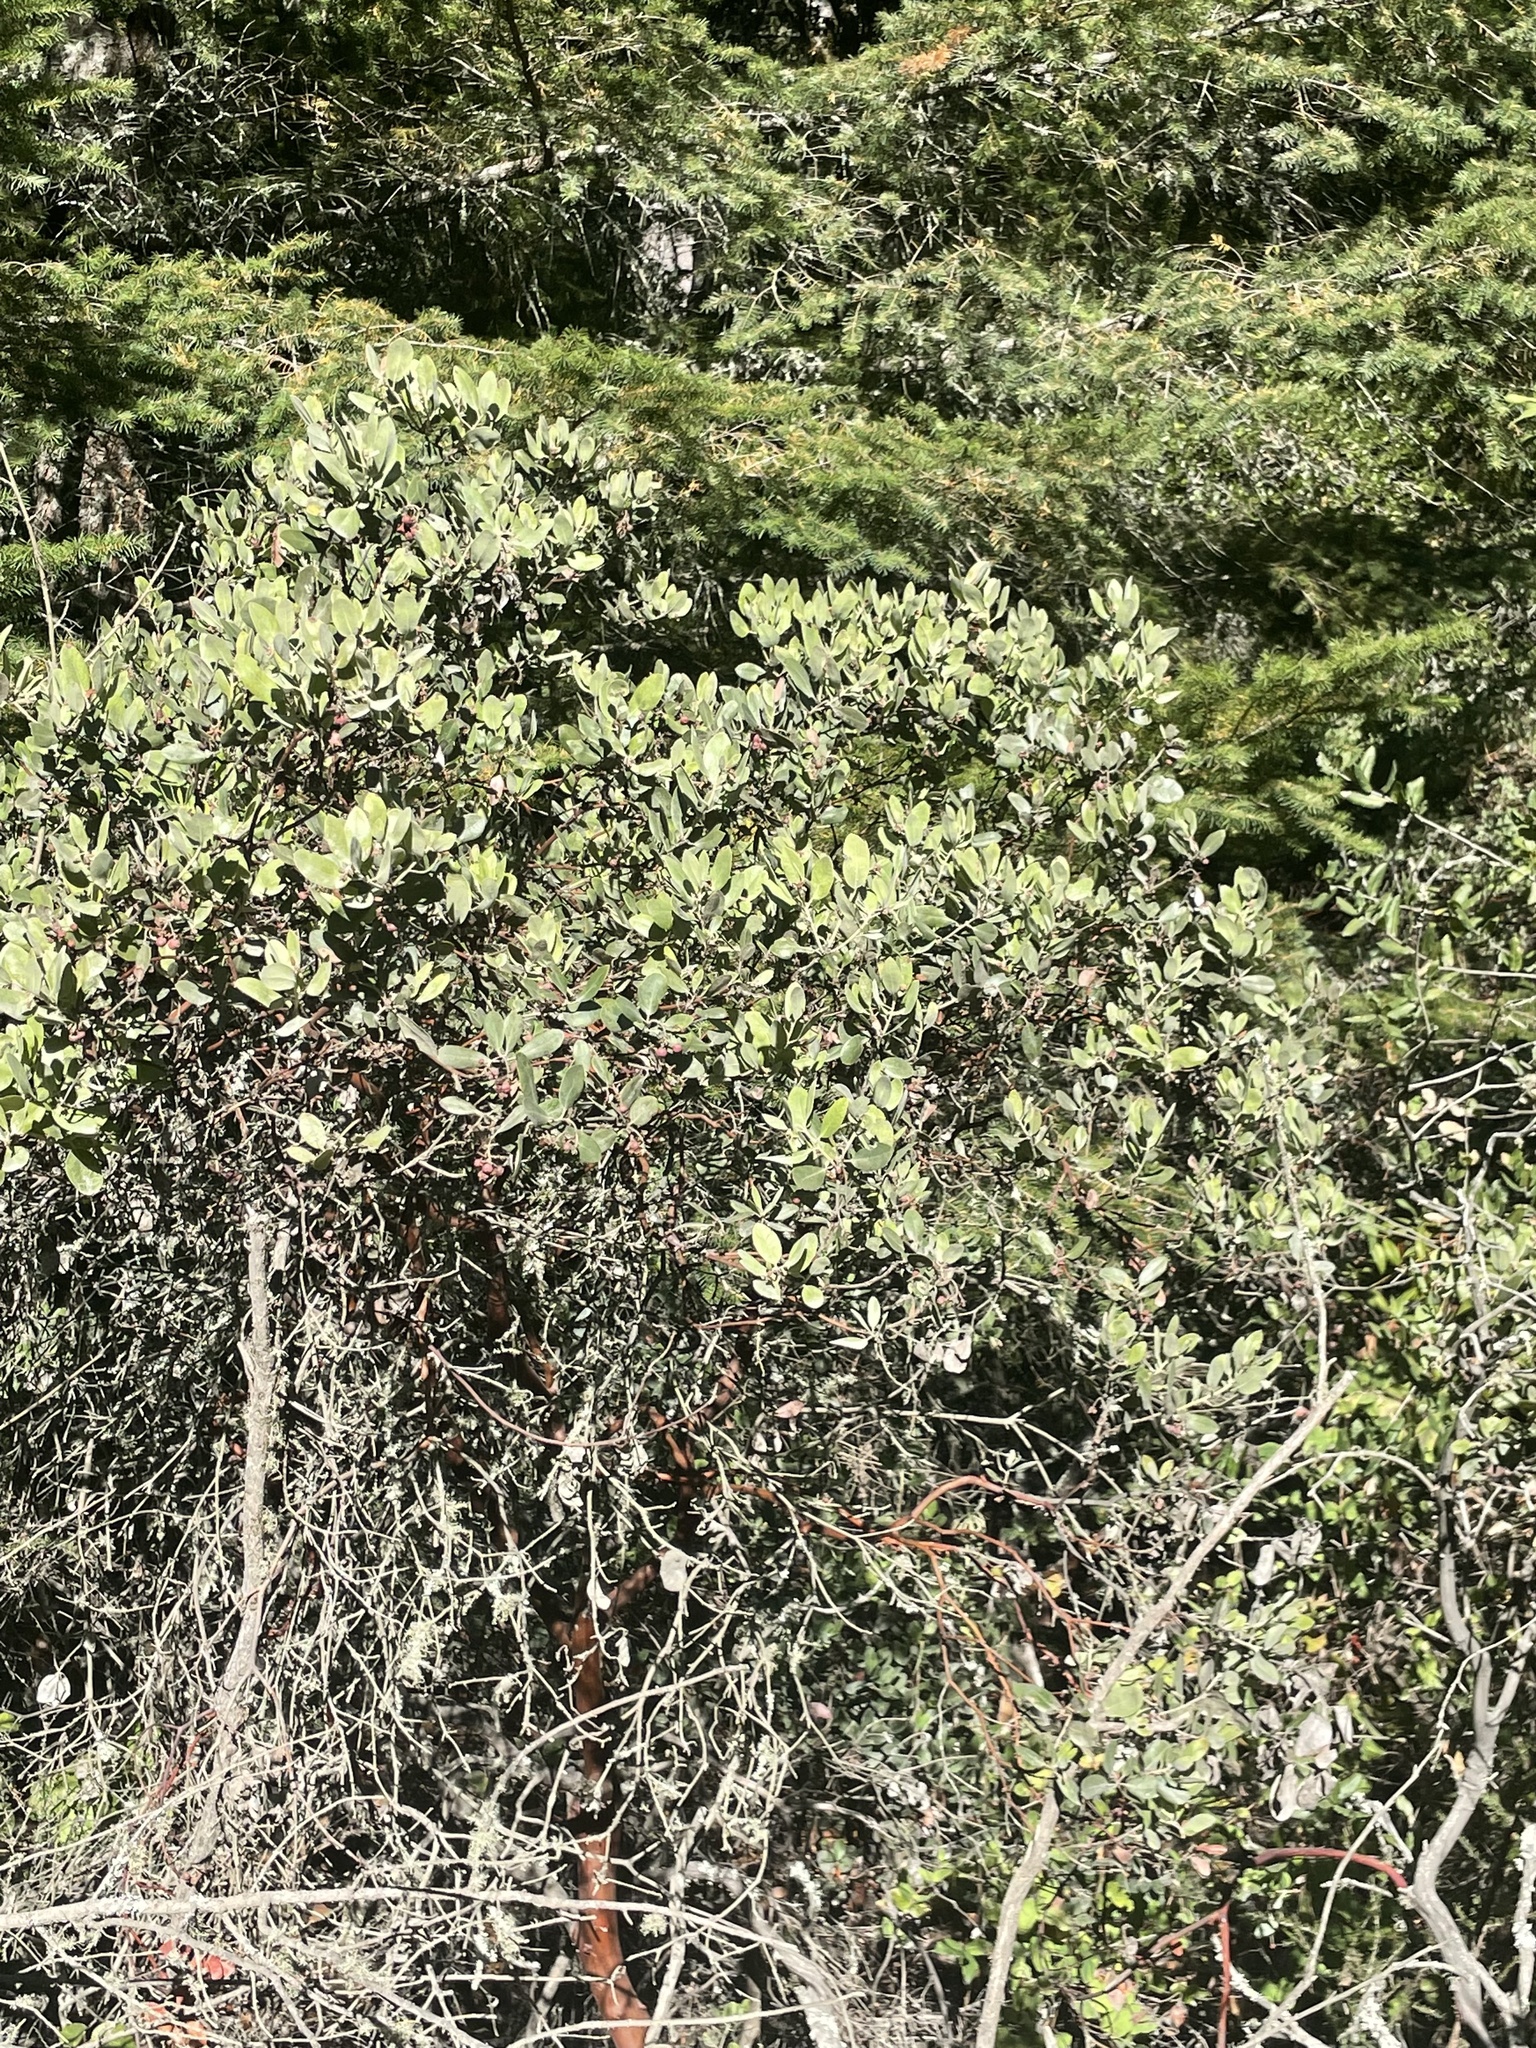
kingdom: Plantae
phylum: Tracheophyta
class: Magnoliopsida
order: Ericales
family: Ericaceae
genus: Arctostaphylos
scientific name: Arctostaphylos crustacea
